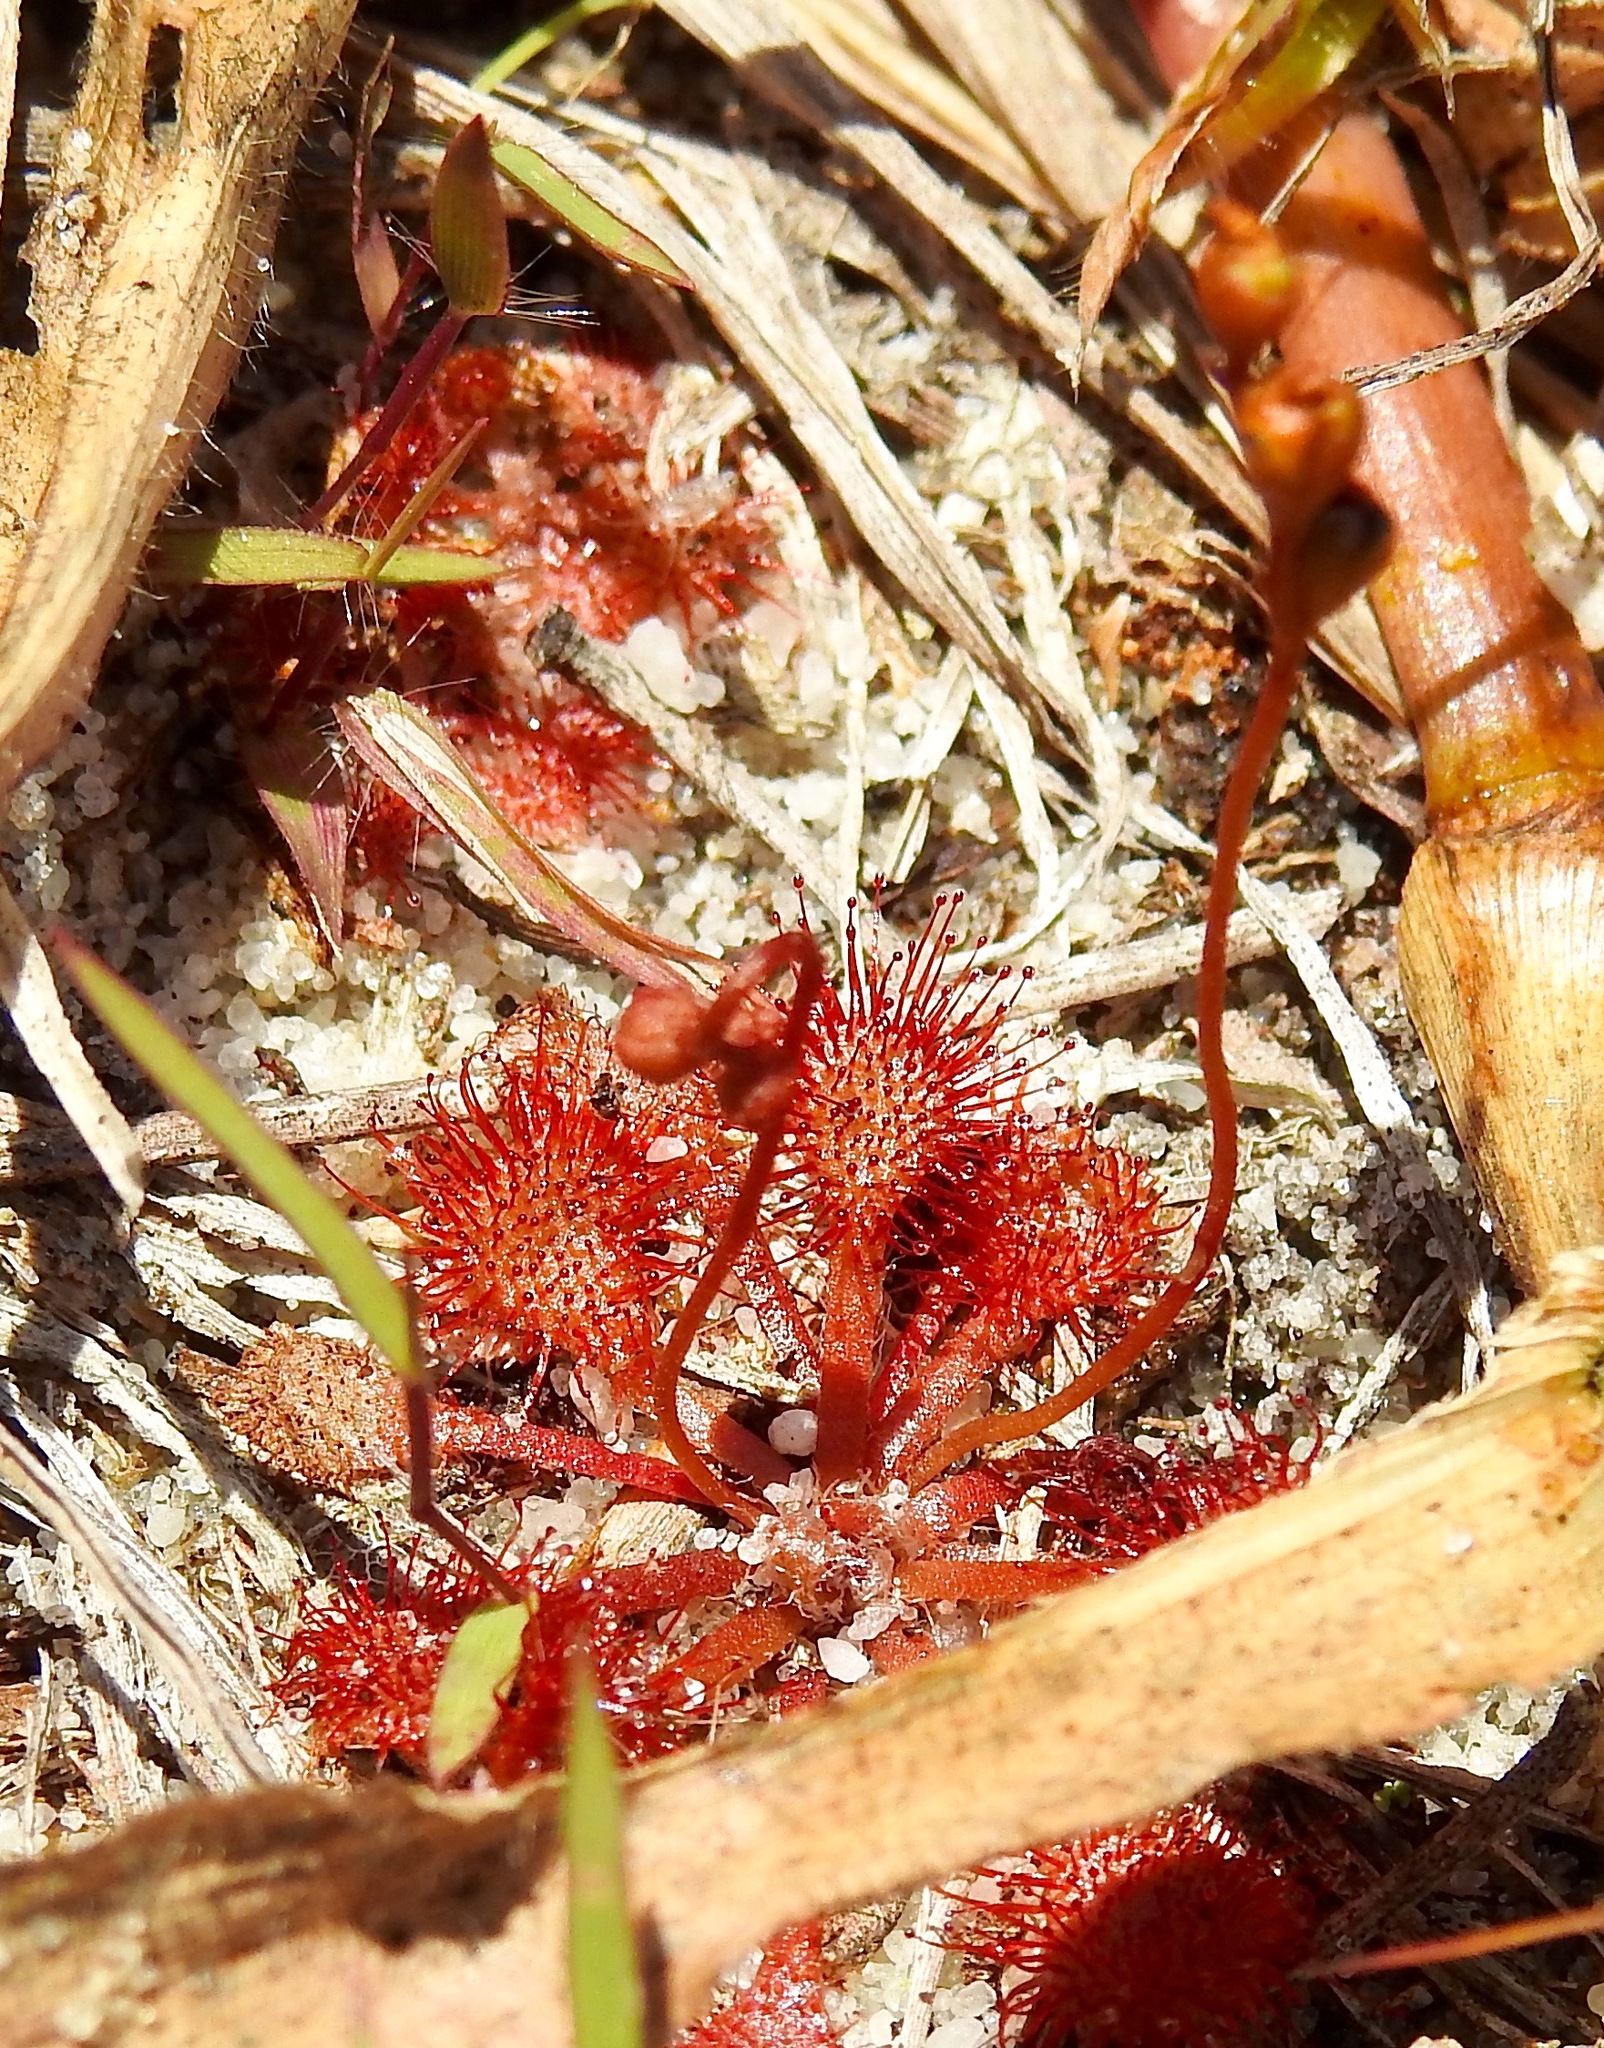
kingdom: Plantae
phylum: Tracheophyta
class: Magnoliopsida
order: Caryophyllales
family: Droseraceae
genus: Drosera
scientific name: Drosera capillaris
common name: Pink sundew
